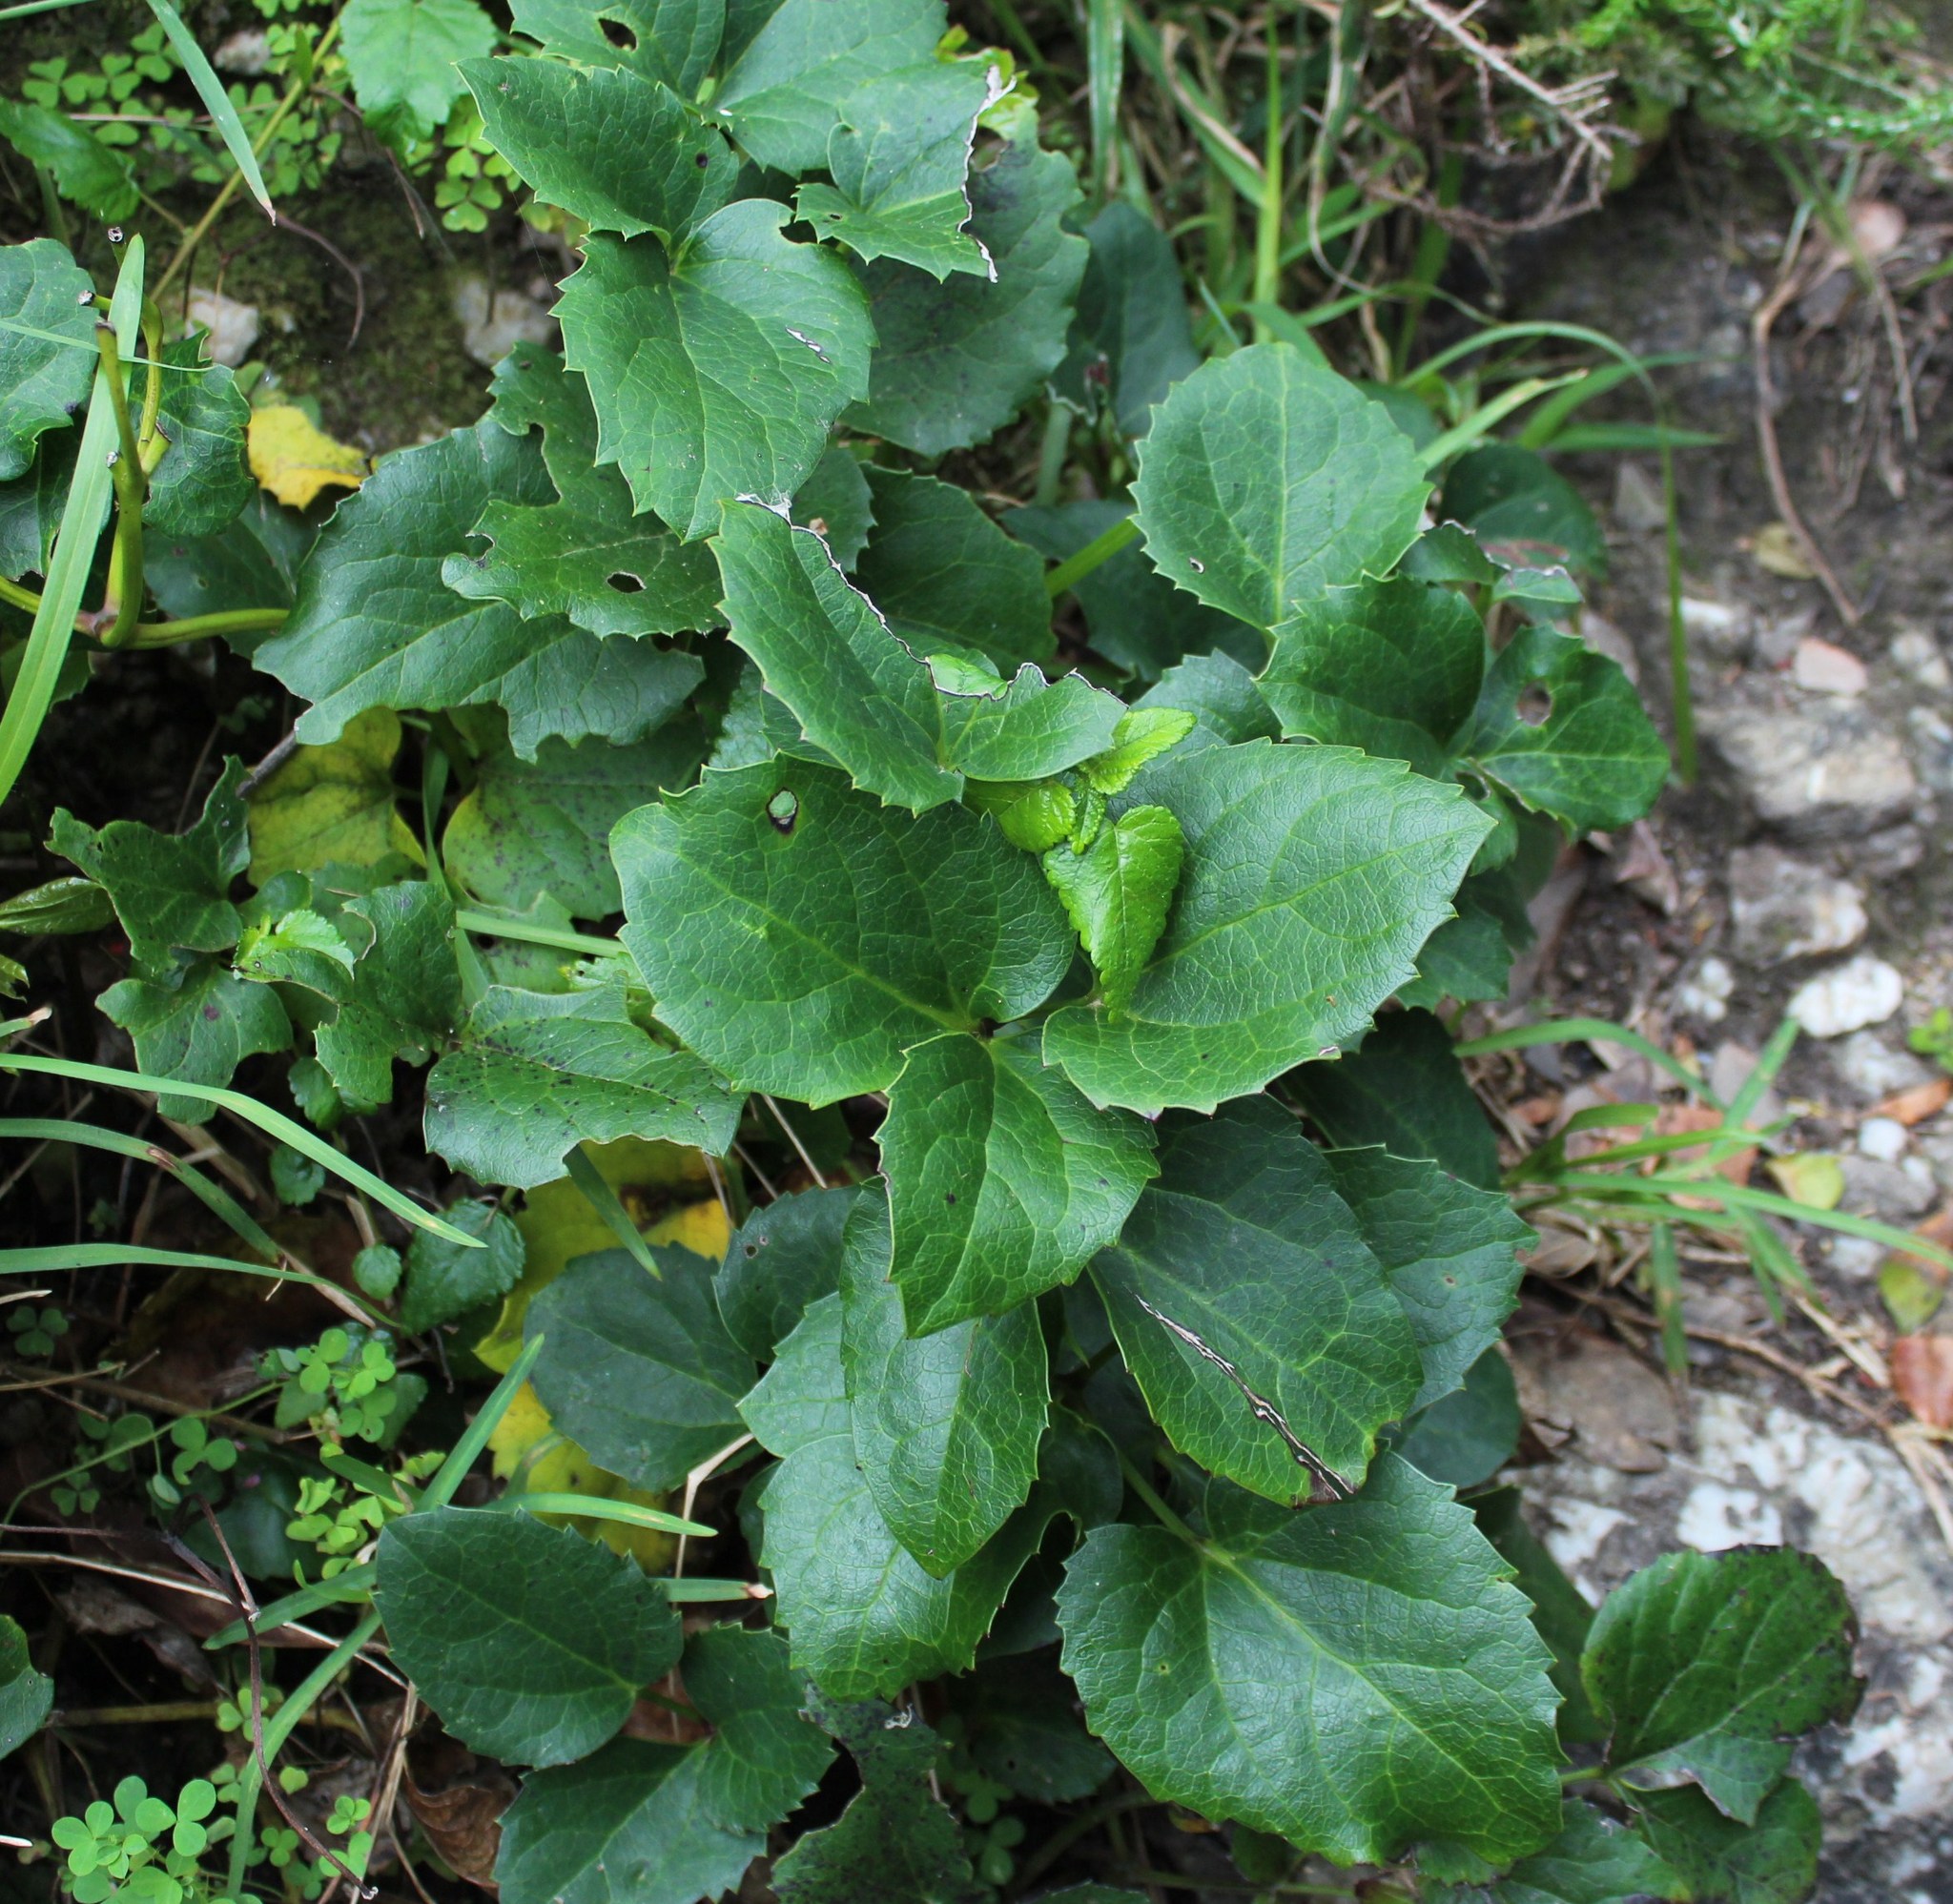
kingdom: Plantae
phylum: Tracheophyta
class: Magnoliopsida
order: Ranunculales
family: Ranunculaceae
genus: Knowltonia
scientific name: Knowltonia vesicatoria
